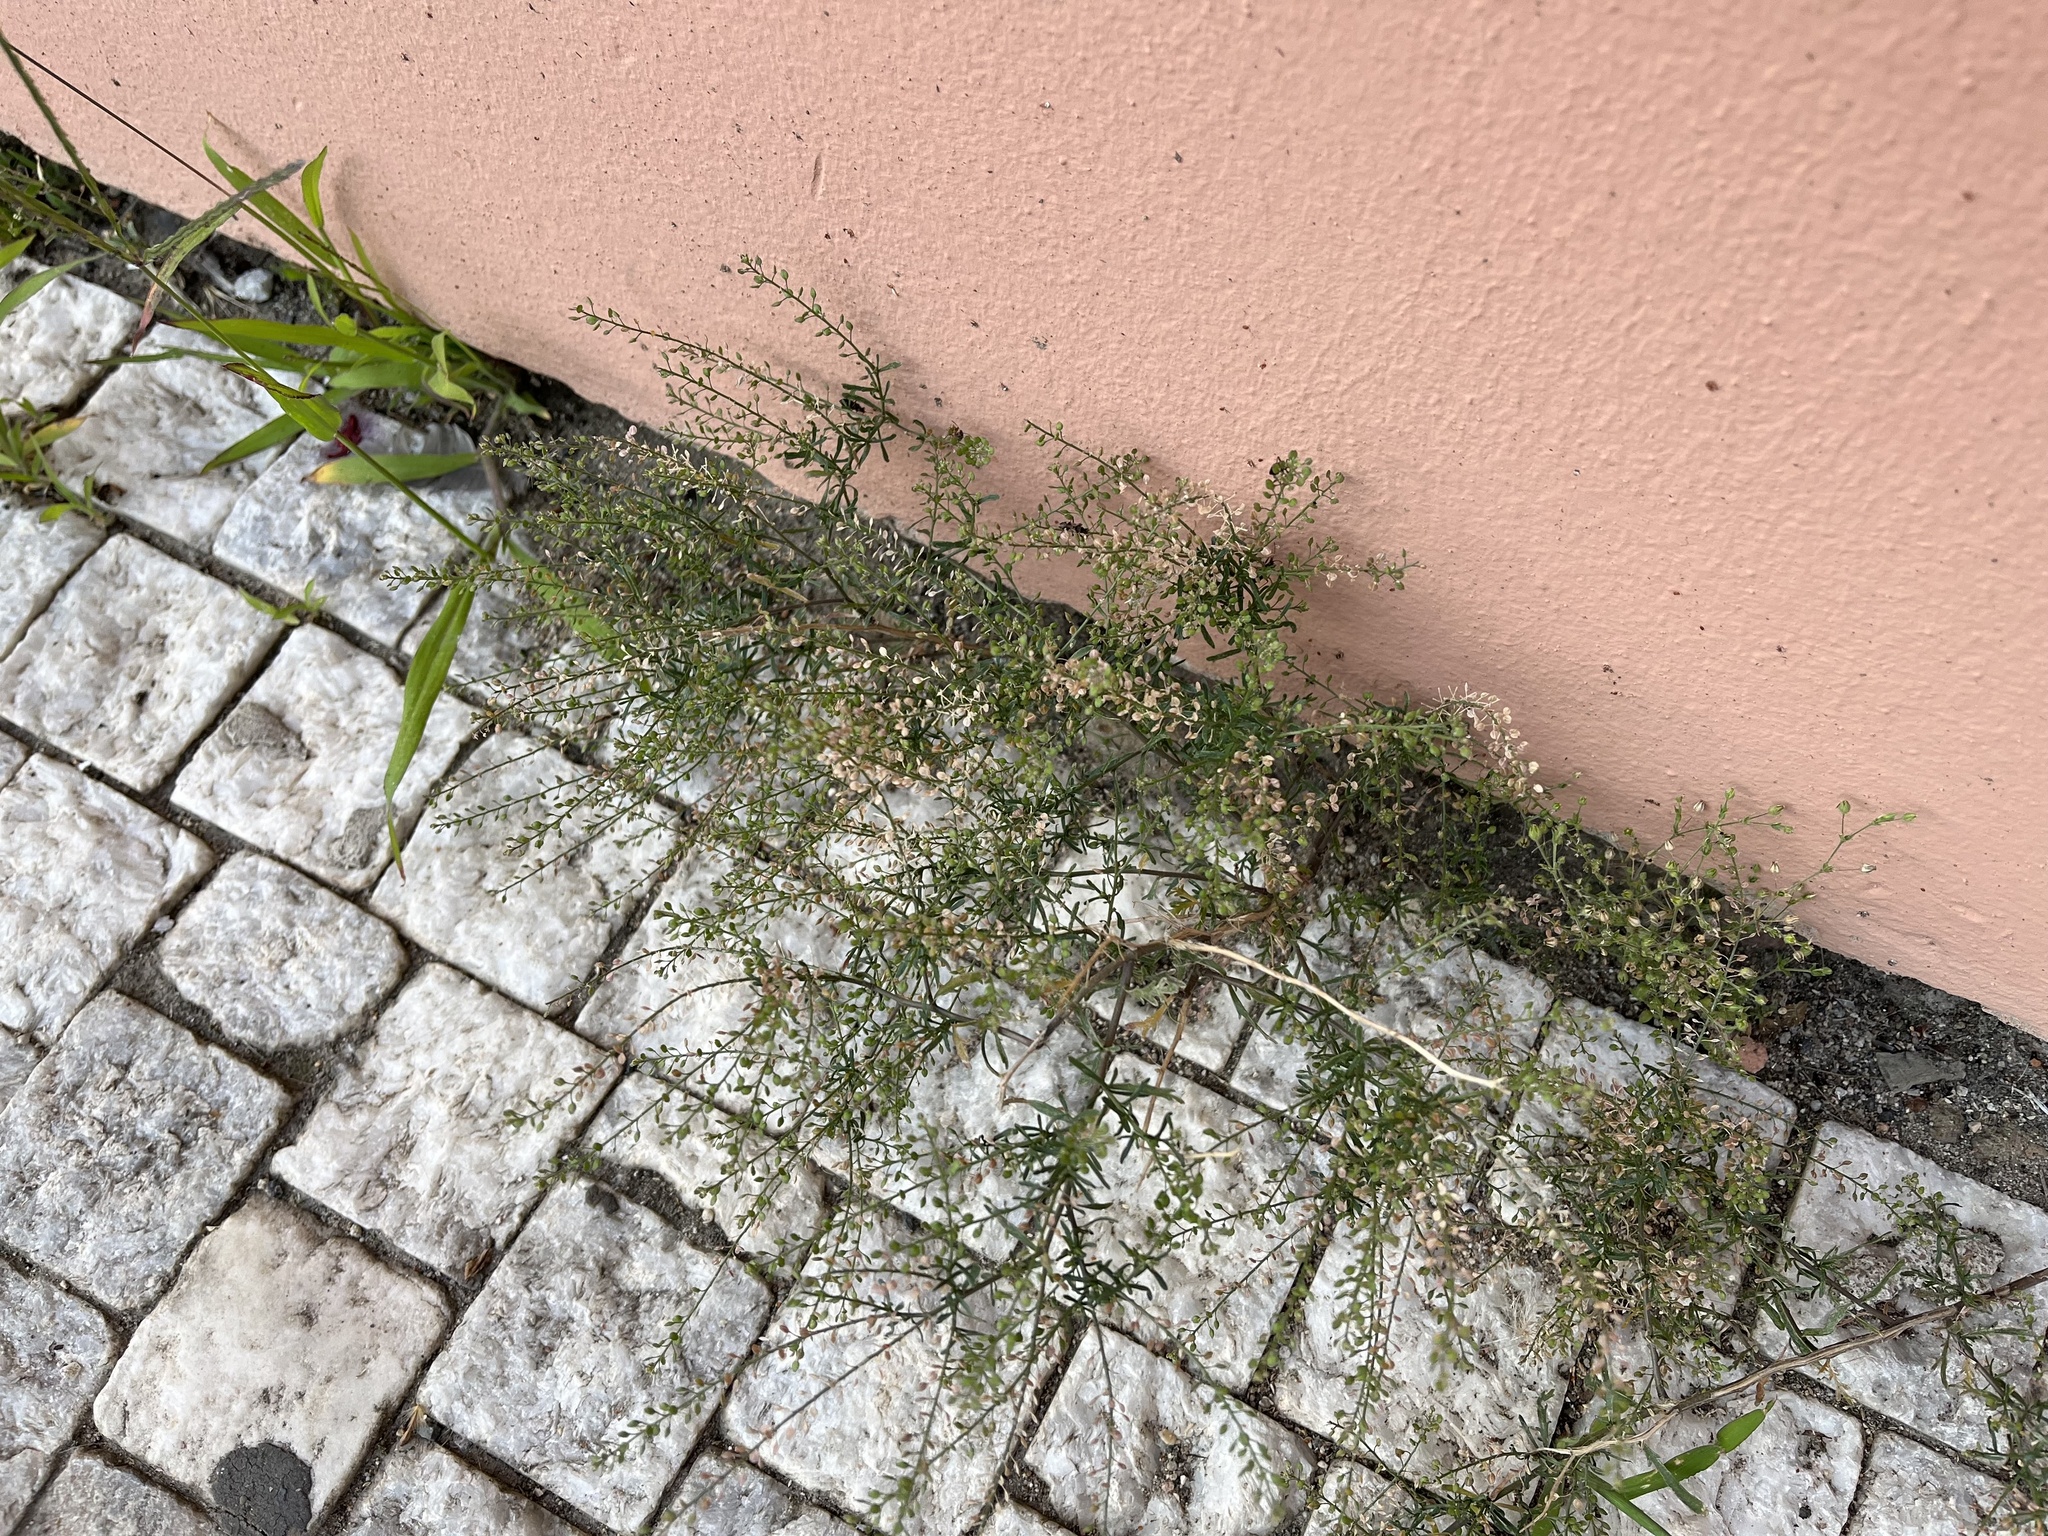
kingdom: Plantae
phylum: Tracheophyta
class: Magnoliopsida
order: Brassicales
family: Brassicaceae
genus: Lepidium
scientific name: Lepidium ruderale
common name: Narrow-leaved pepperwort
